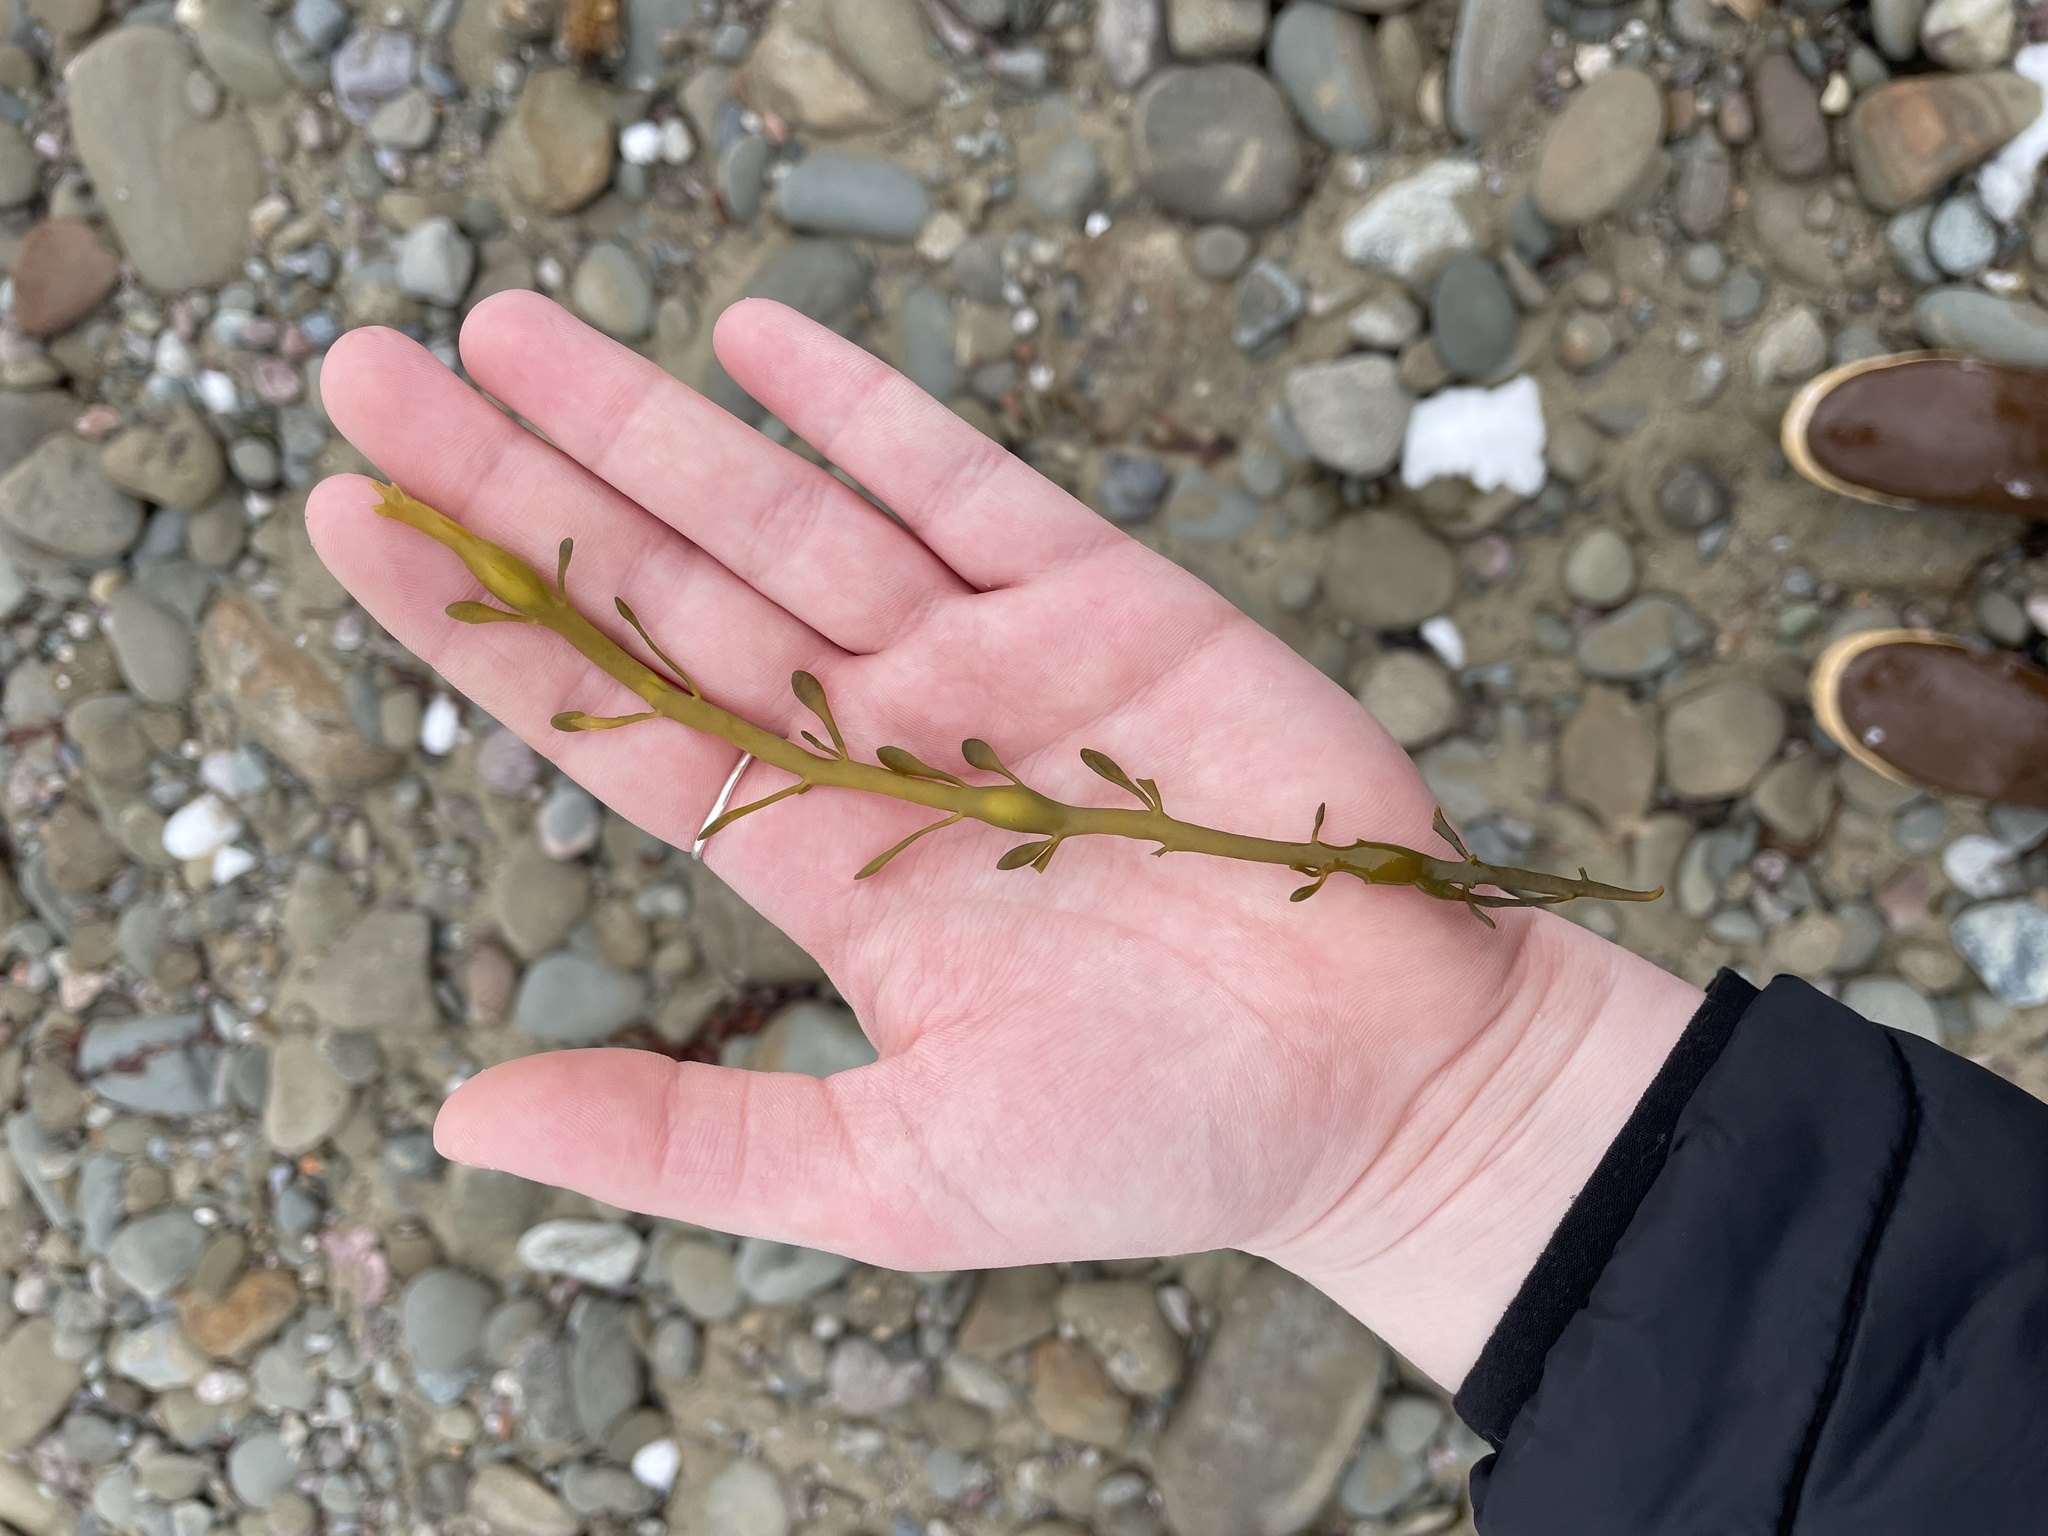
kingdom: Chromista
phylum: Ochrophyta
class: Phaeophyceae
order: Fucales
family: Fucaceae
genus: Ascophyllum
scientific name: Ascophyllum nodosum
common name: Knotted wrack
